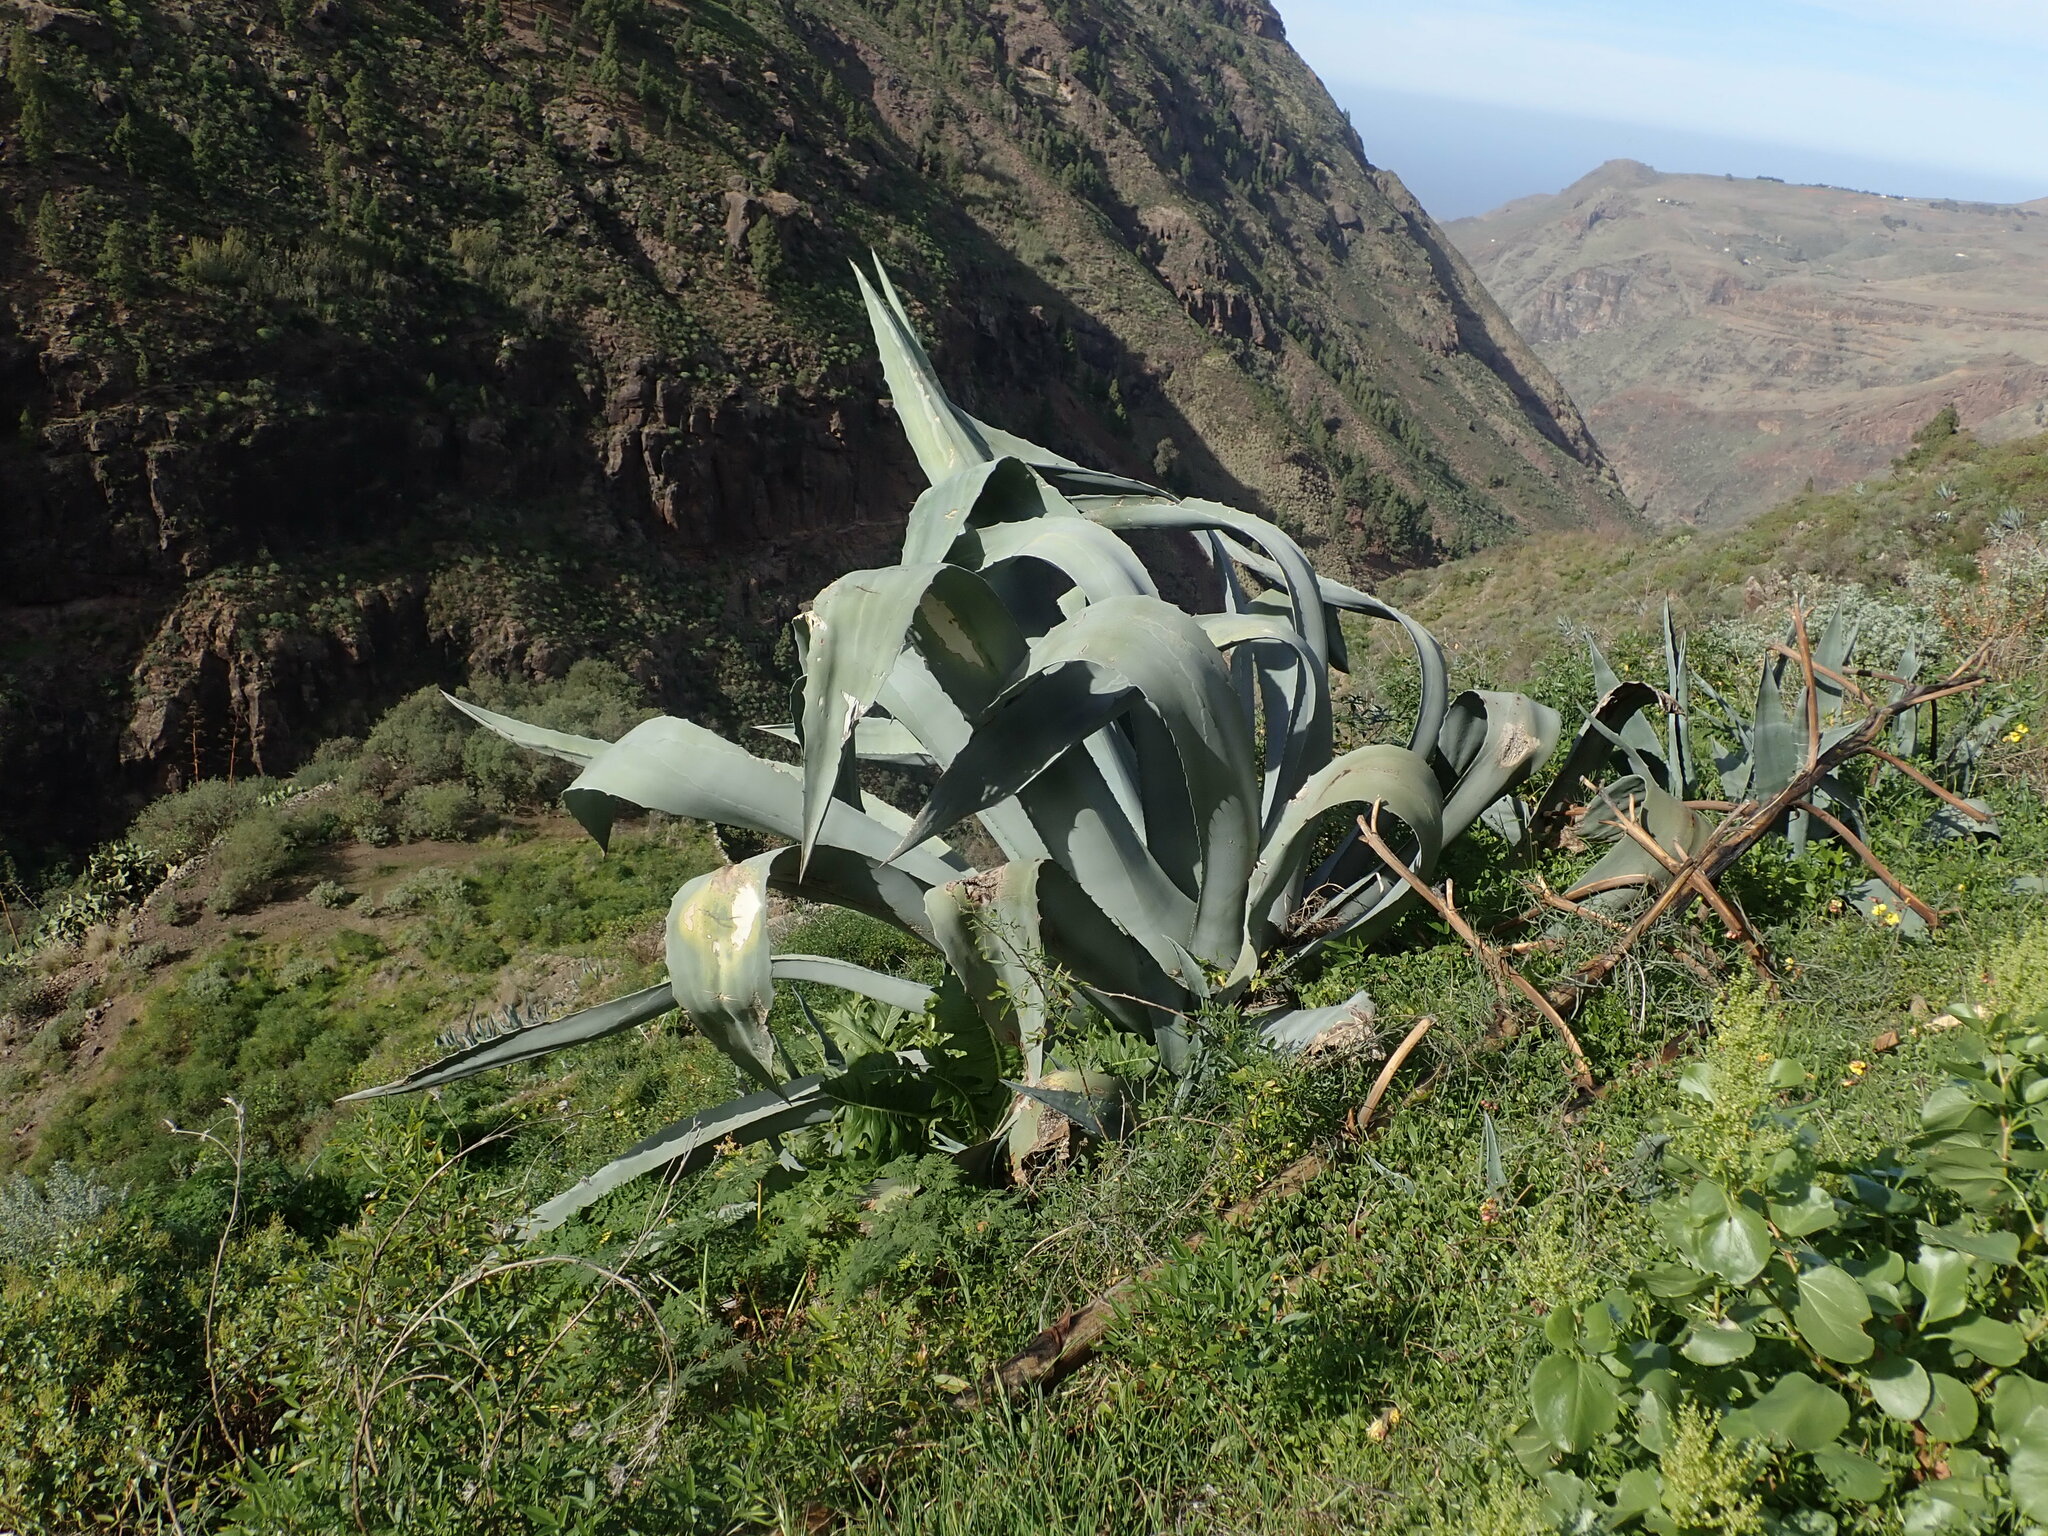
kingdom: Plantae
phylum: Tracheophyta
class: Liliopsida
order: Asparagales
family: Asparagaceae
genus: Agave
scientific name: Agave americana
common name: Centuryplant
